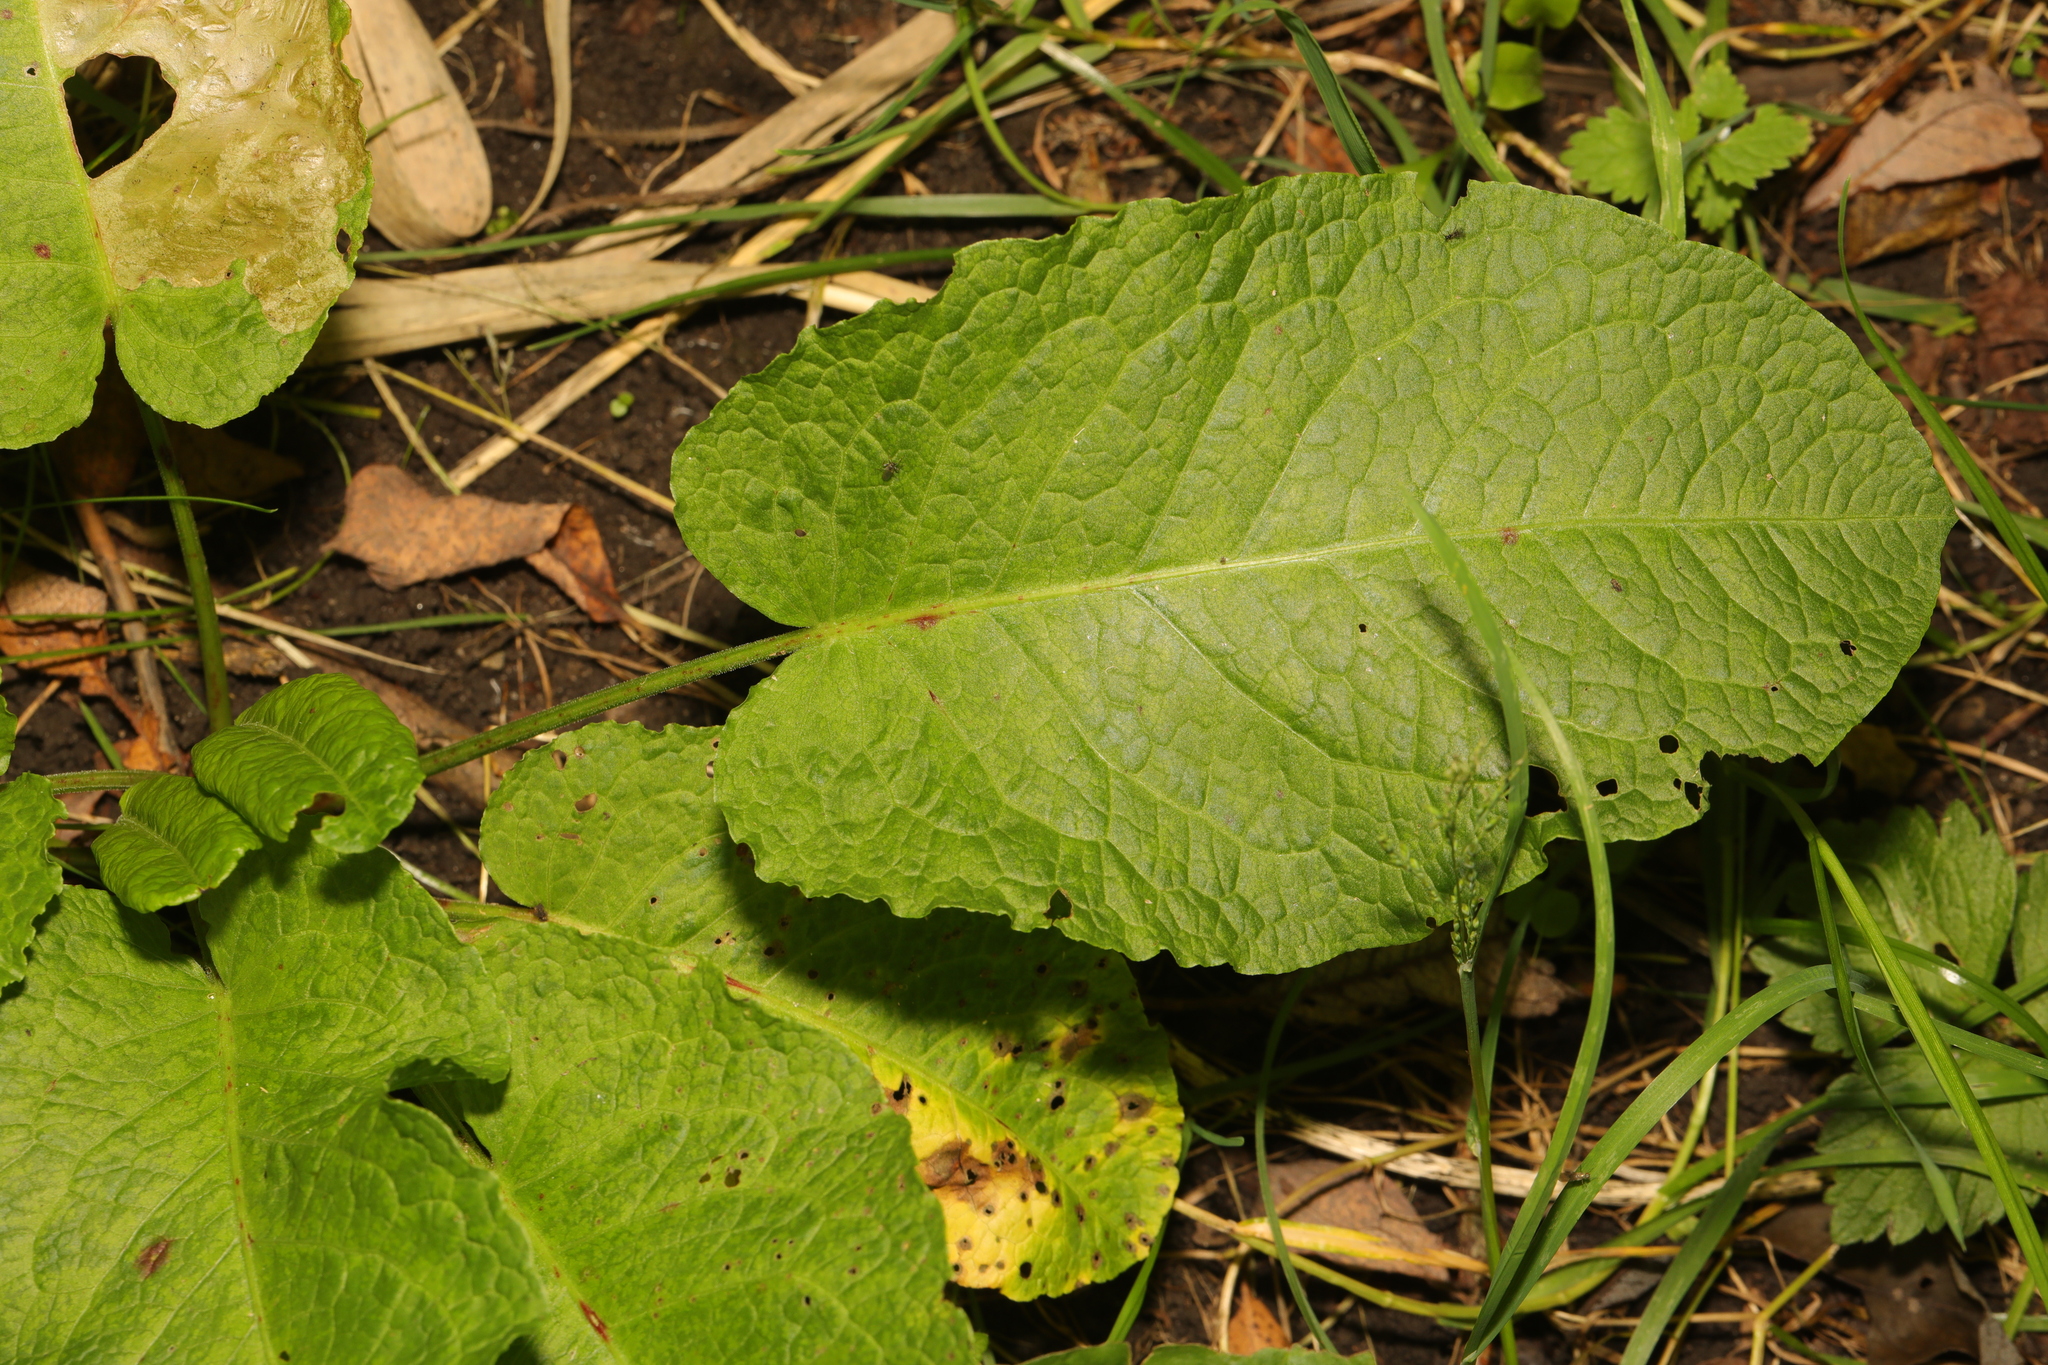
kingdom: Plantae
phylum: Tracheophyta
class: Magnoliopsida
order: Caryophyllales
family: Polygonaceae
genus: Rumex
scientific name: Rumex obtusifolius
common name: Bitter dock
